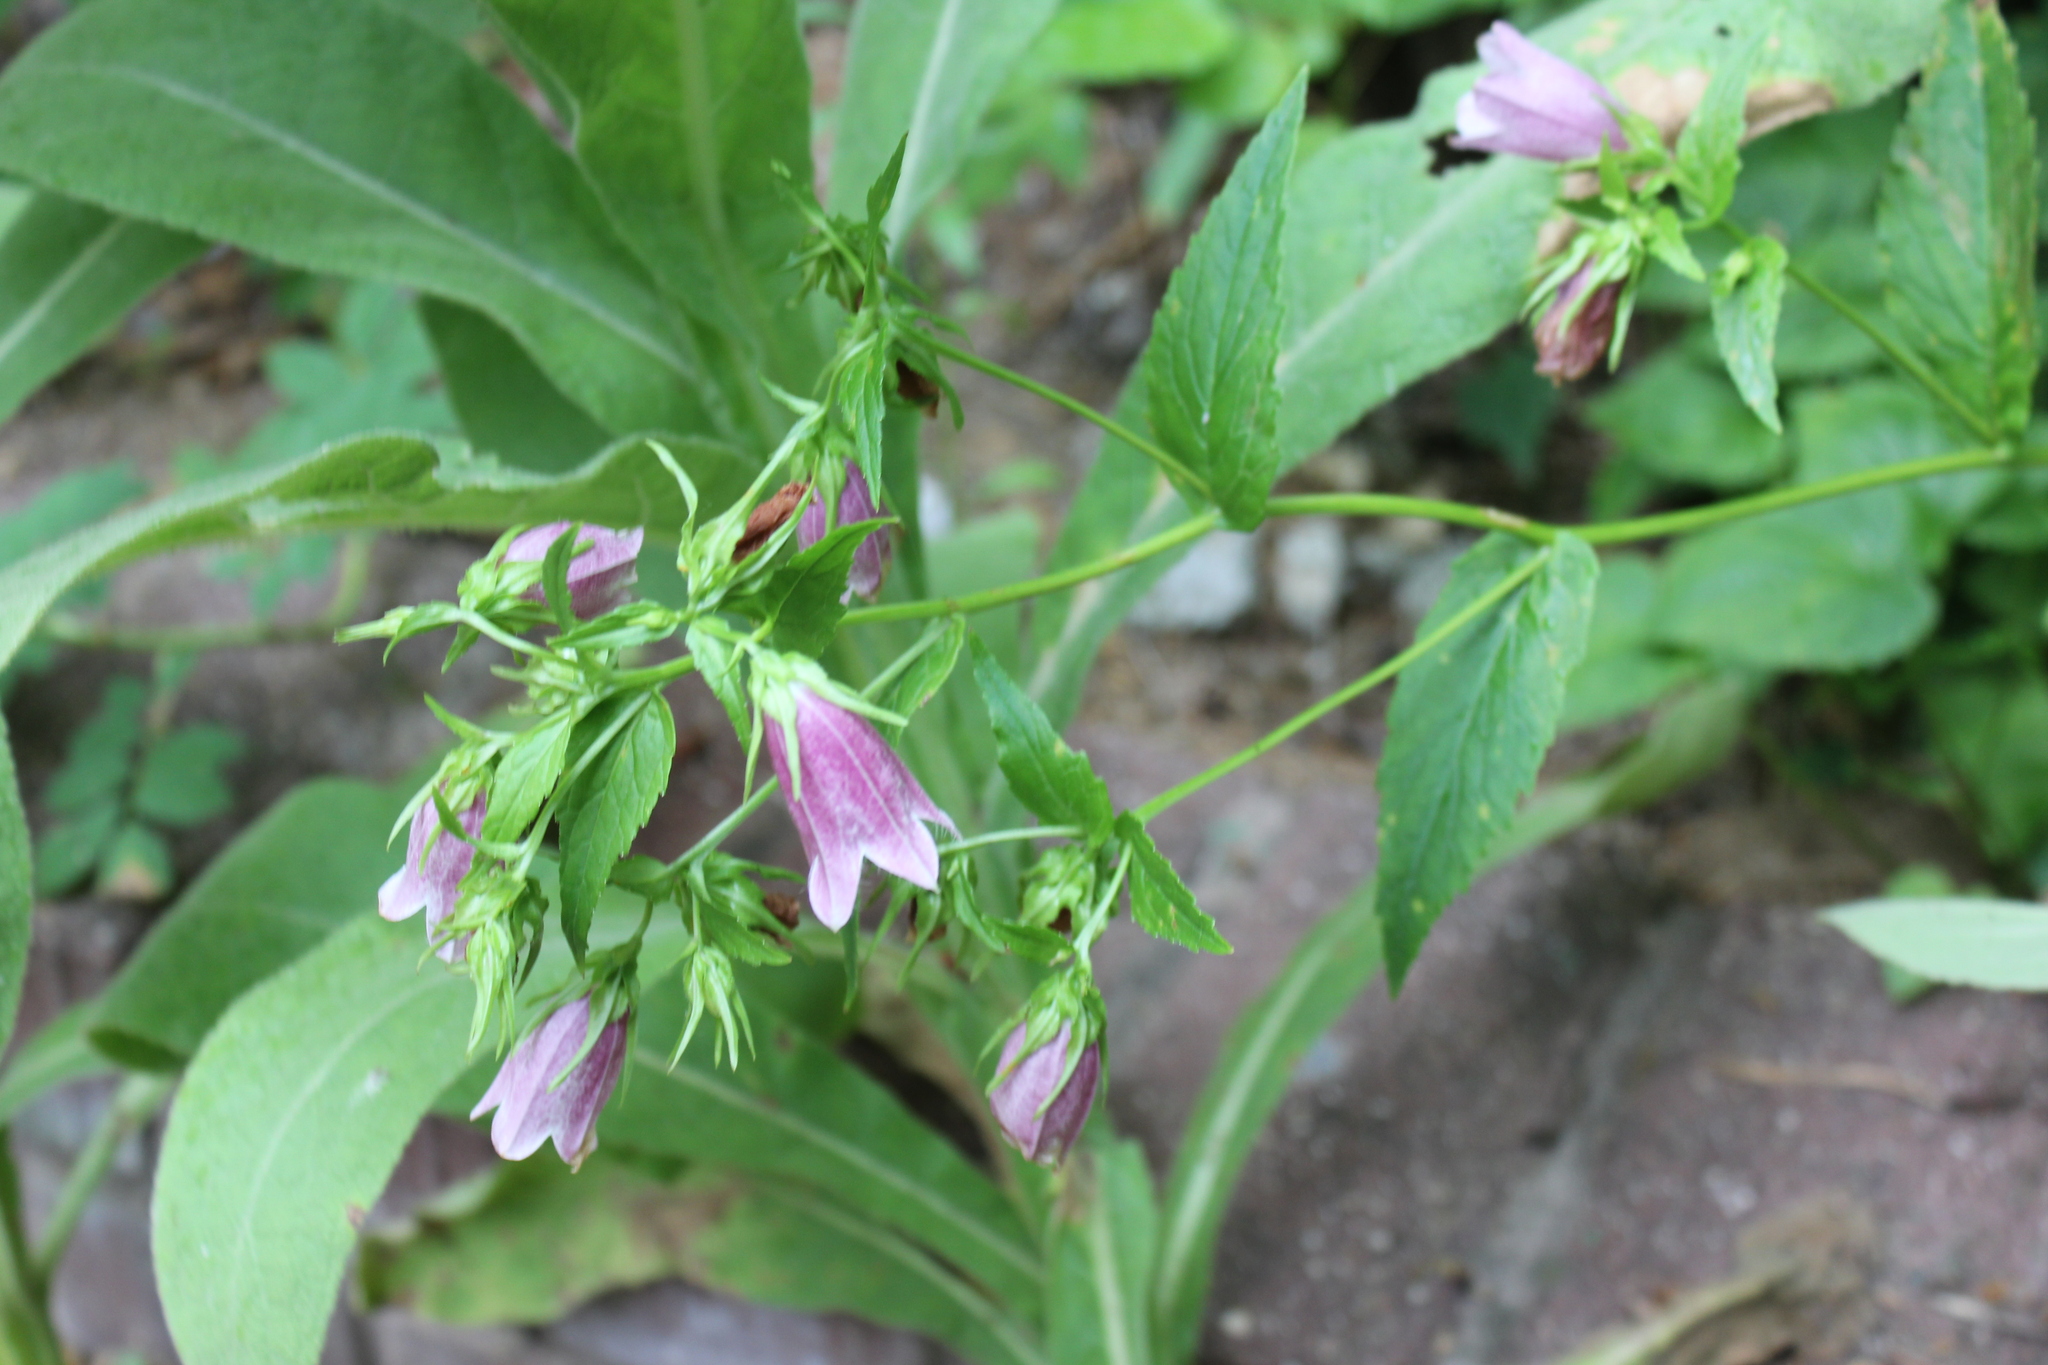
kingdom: Plantae
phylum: Tracheophyta
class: Magnoliopsida
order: Asterales
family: Campanulaceae
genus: Campanula
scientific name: Campanula punctata
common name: Spotted bellflower
